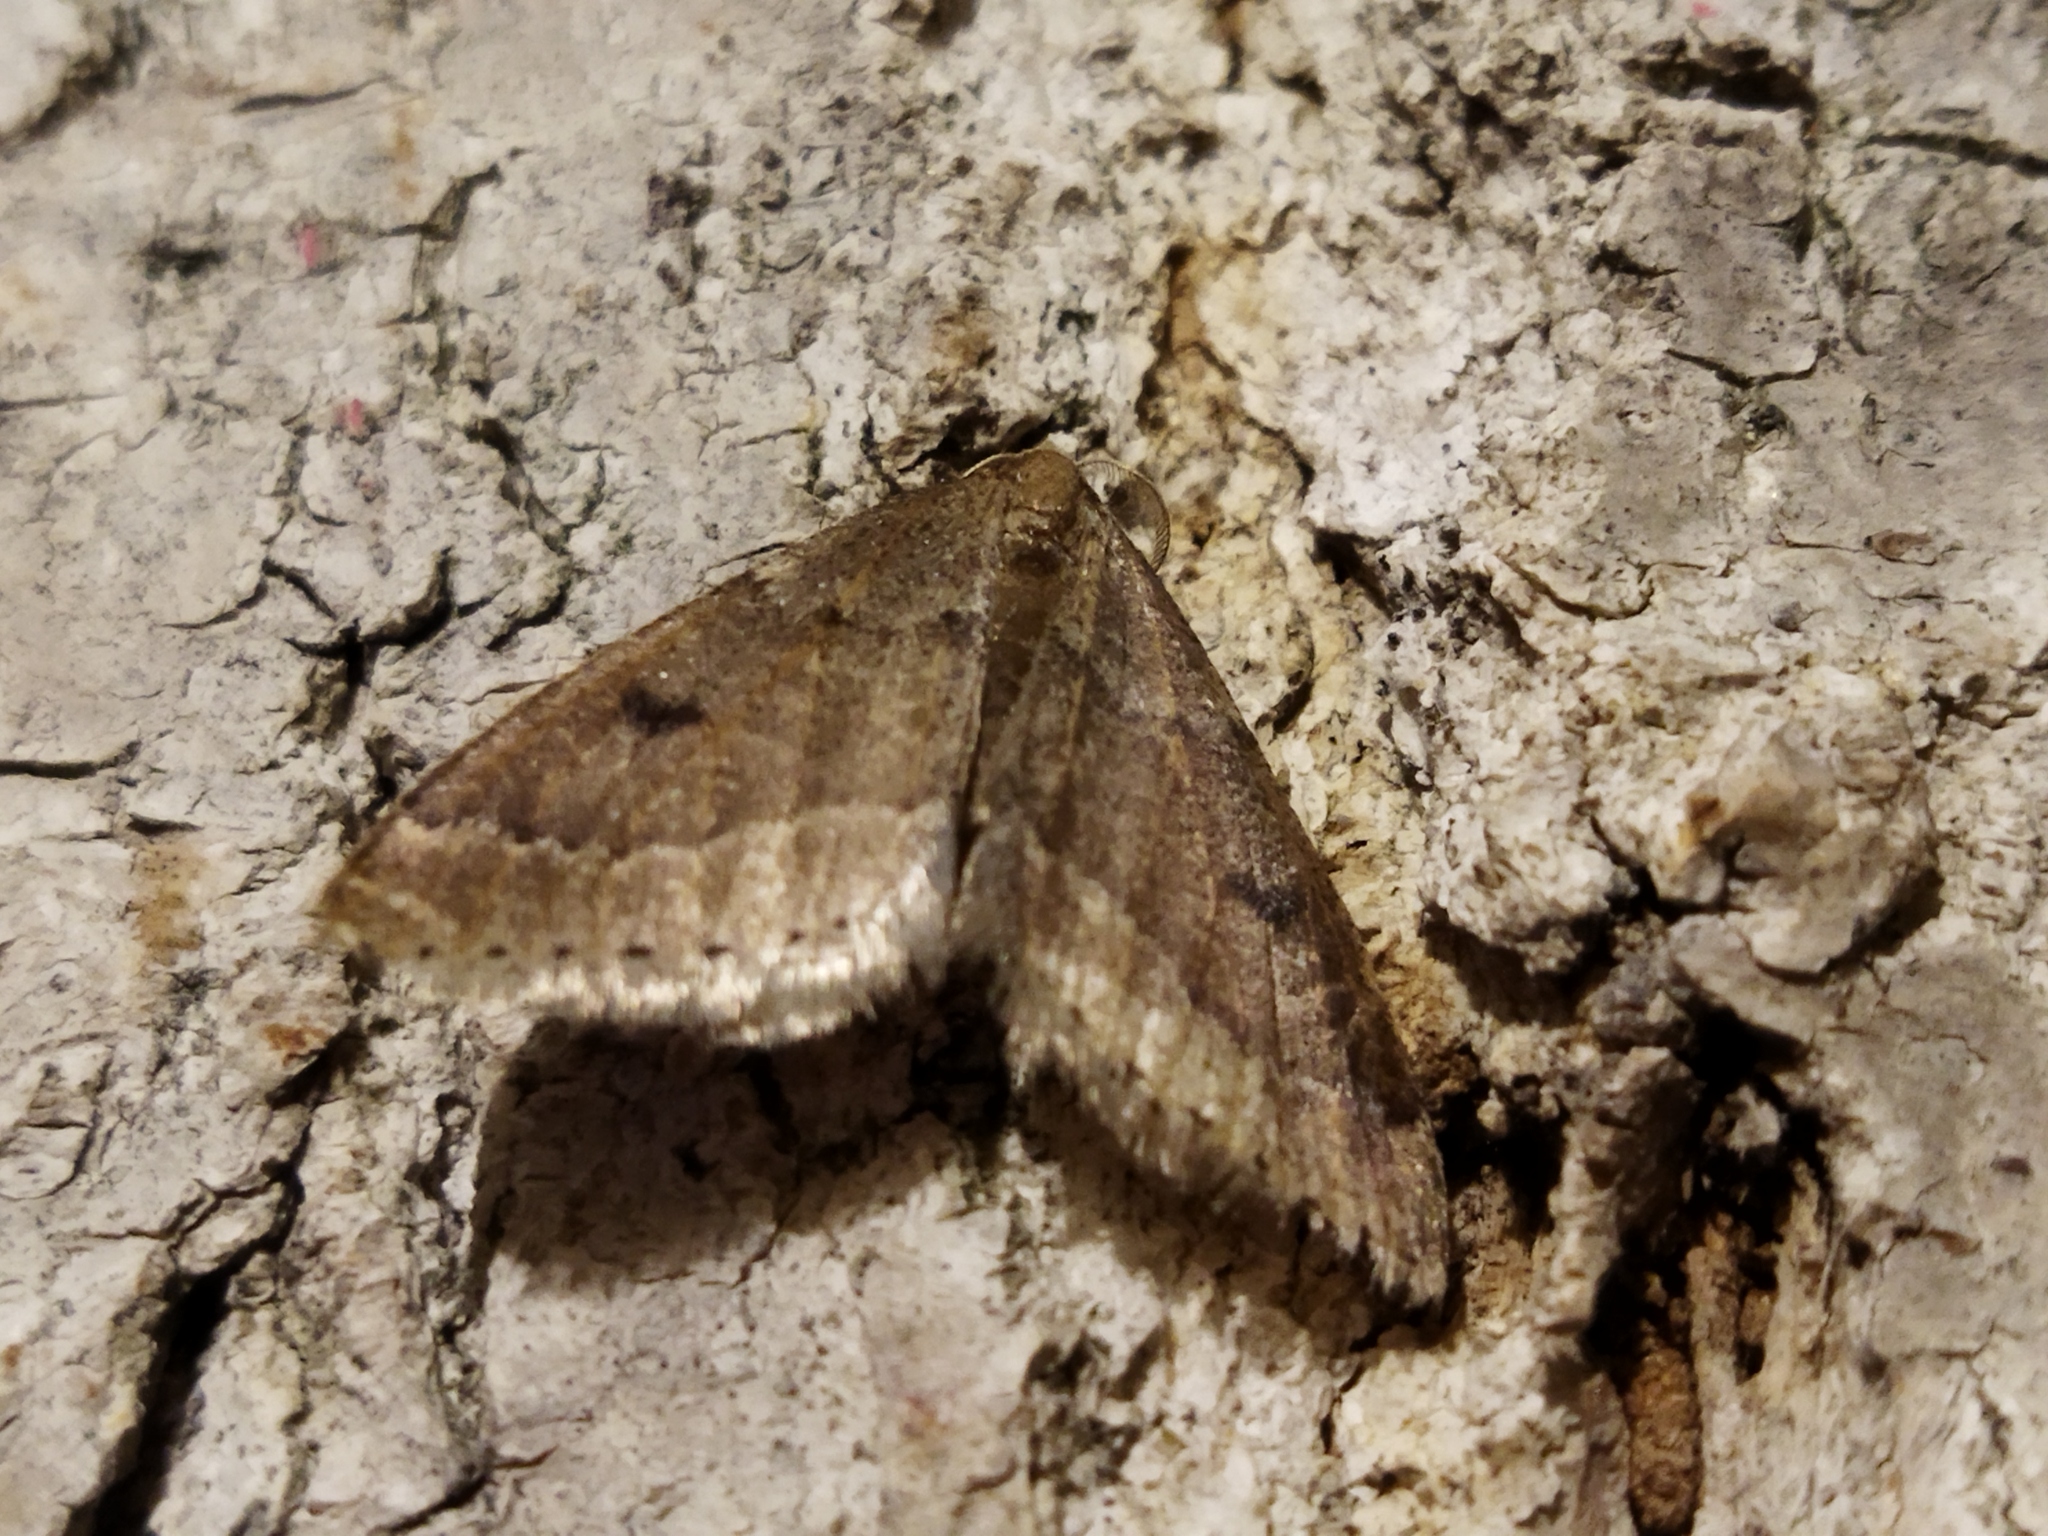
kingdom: Animalia
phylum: Arthropoda
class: Insecta
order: Lepidoptera
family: Geometridae
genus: Theria
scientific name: Theria rupicapraria
